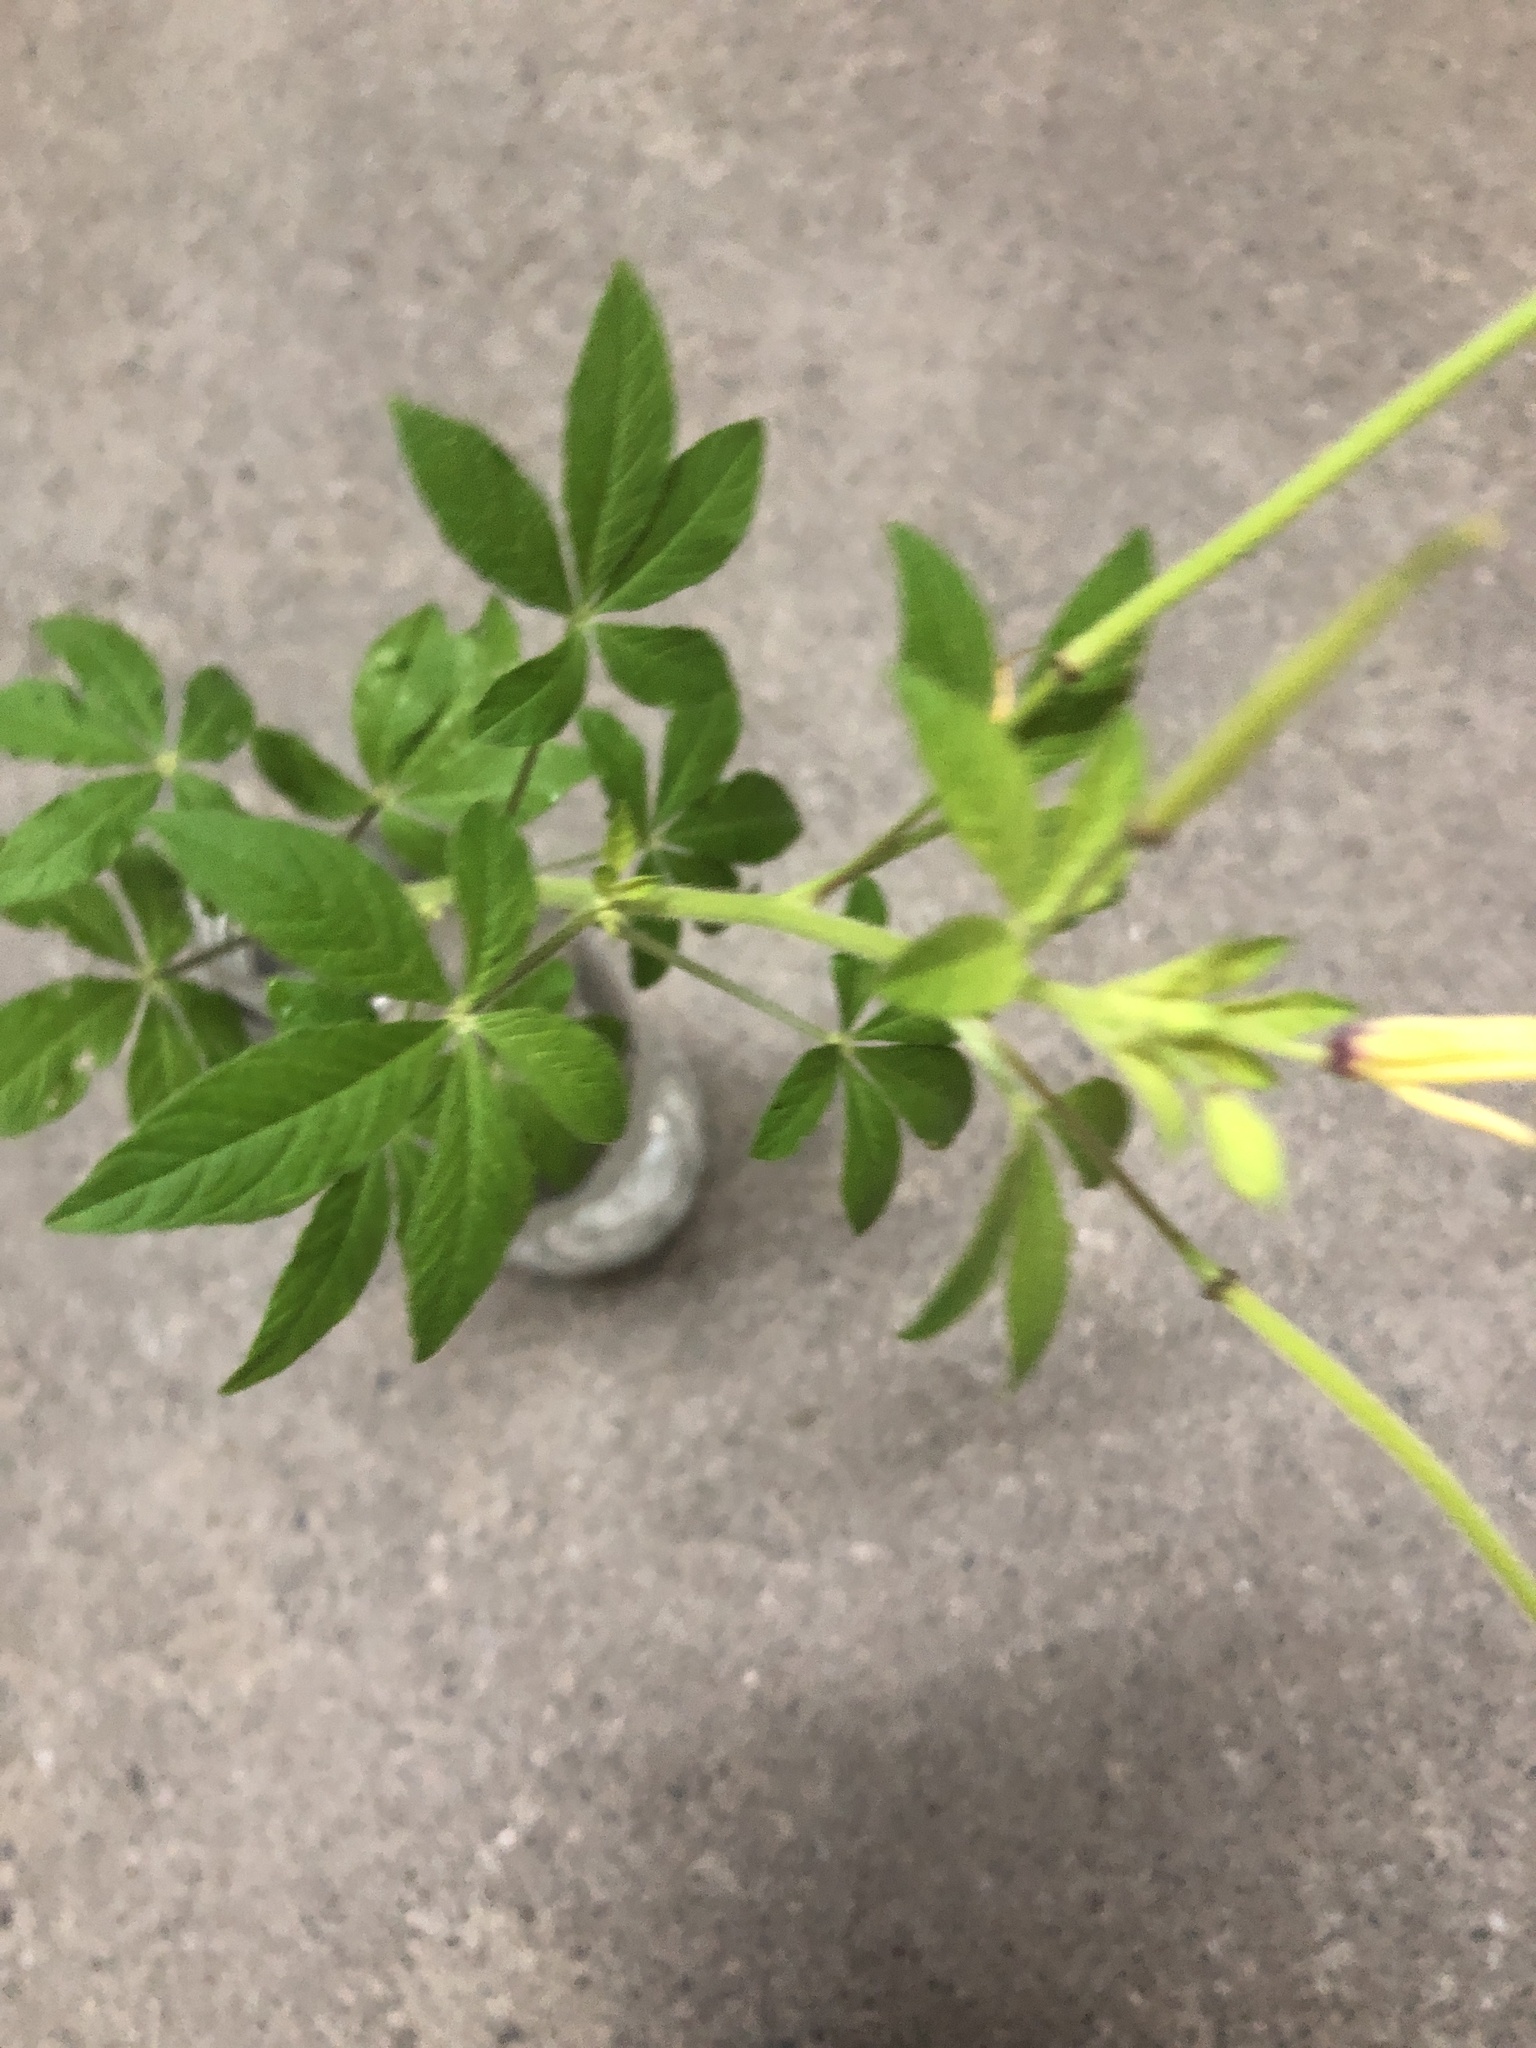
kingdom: Plantae
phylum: Tracheophyta
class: Magnoliopsida
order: Brassicales
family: Cleomaceae
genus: Arivela
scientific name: Arivela viscosa
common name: Asian spiderflower
